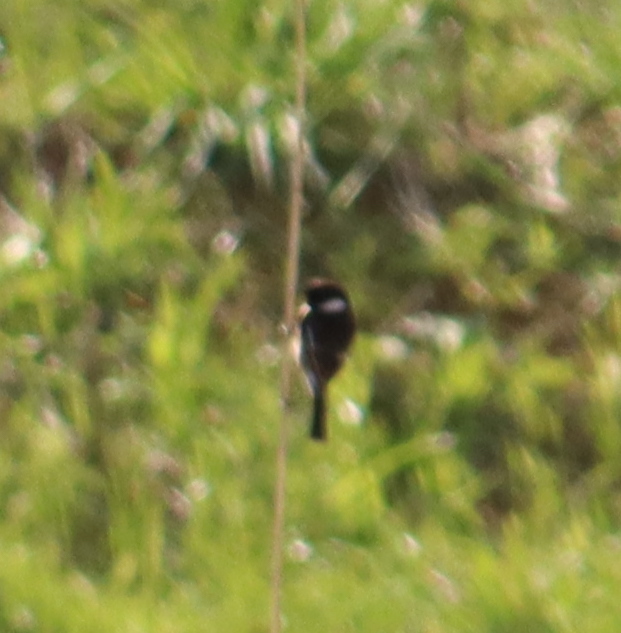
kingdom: Animalia
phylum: Chordata
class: Aves
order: Passeriformes
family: Muscicapidae
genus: Saxicola
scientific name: Saxicola rubicola
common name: European stonechat
